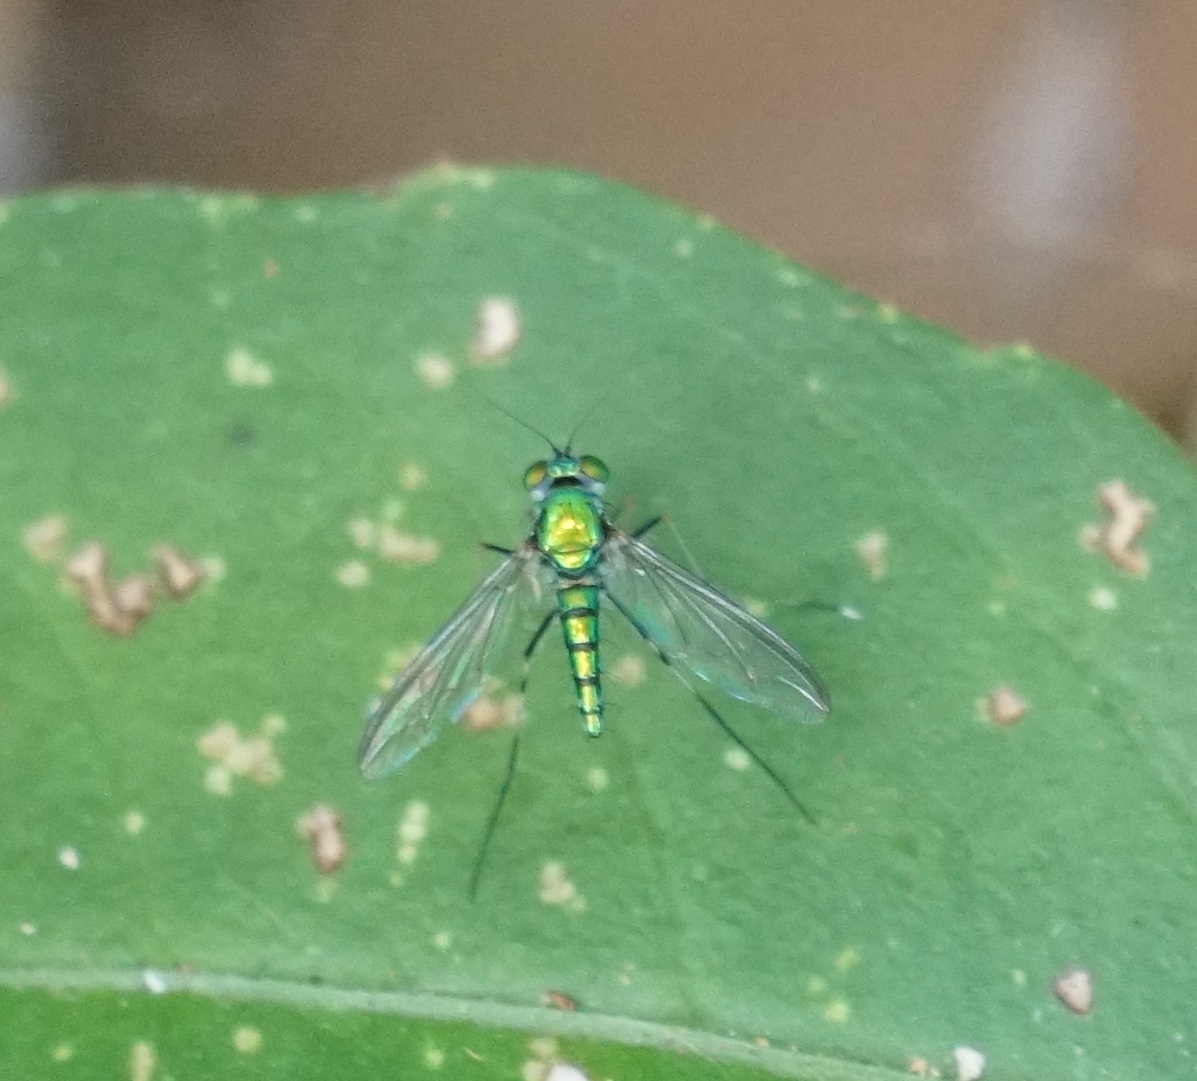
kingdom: Animalia
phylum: Arthropoda
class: Insecta
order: Diptera
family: Dolichopodidae
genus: Chrysosoma
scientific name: Chrysosoma leucopogon
